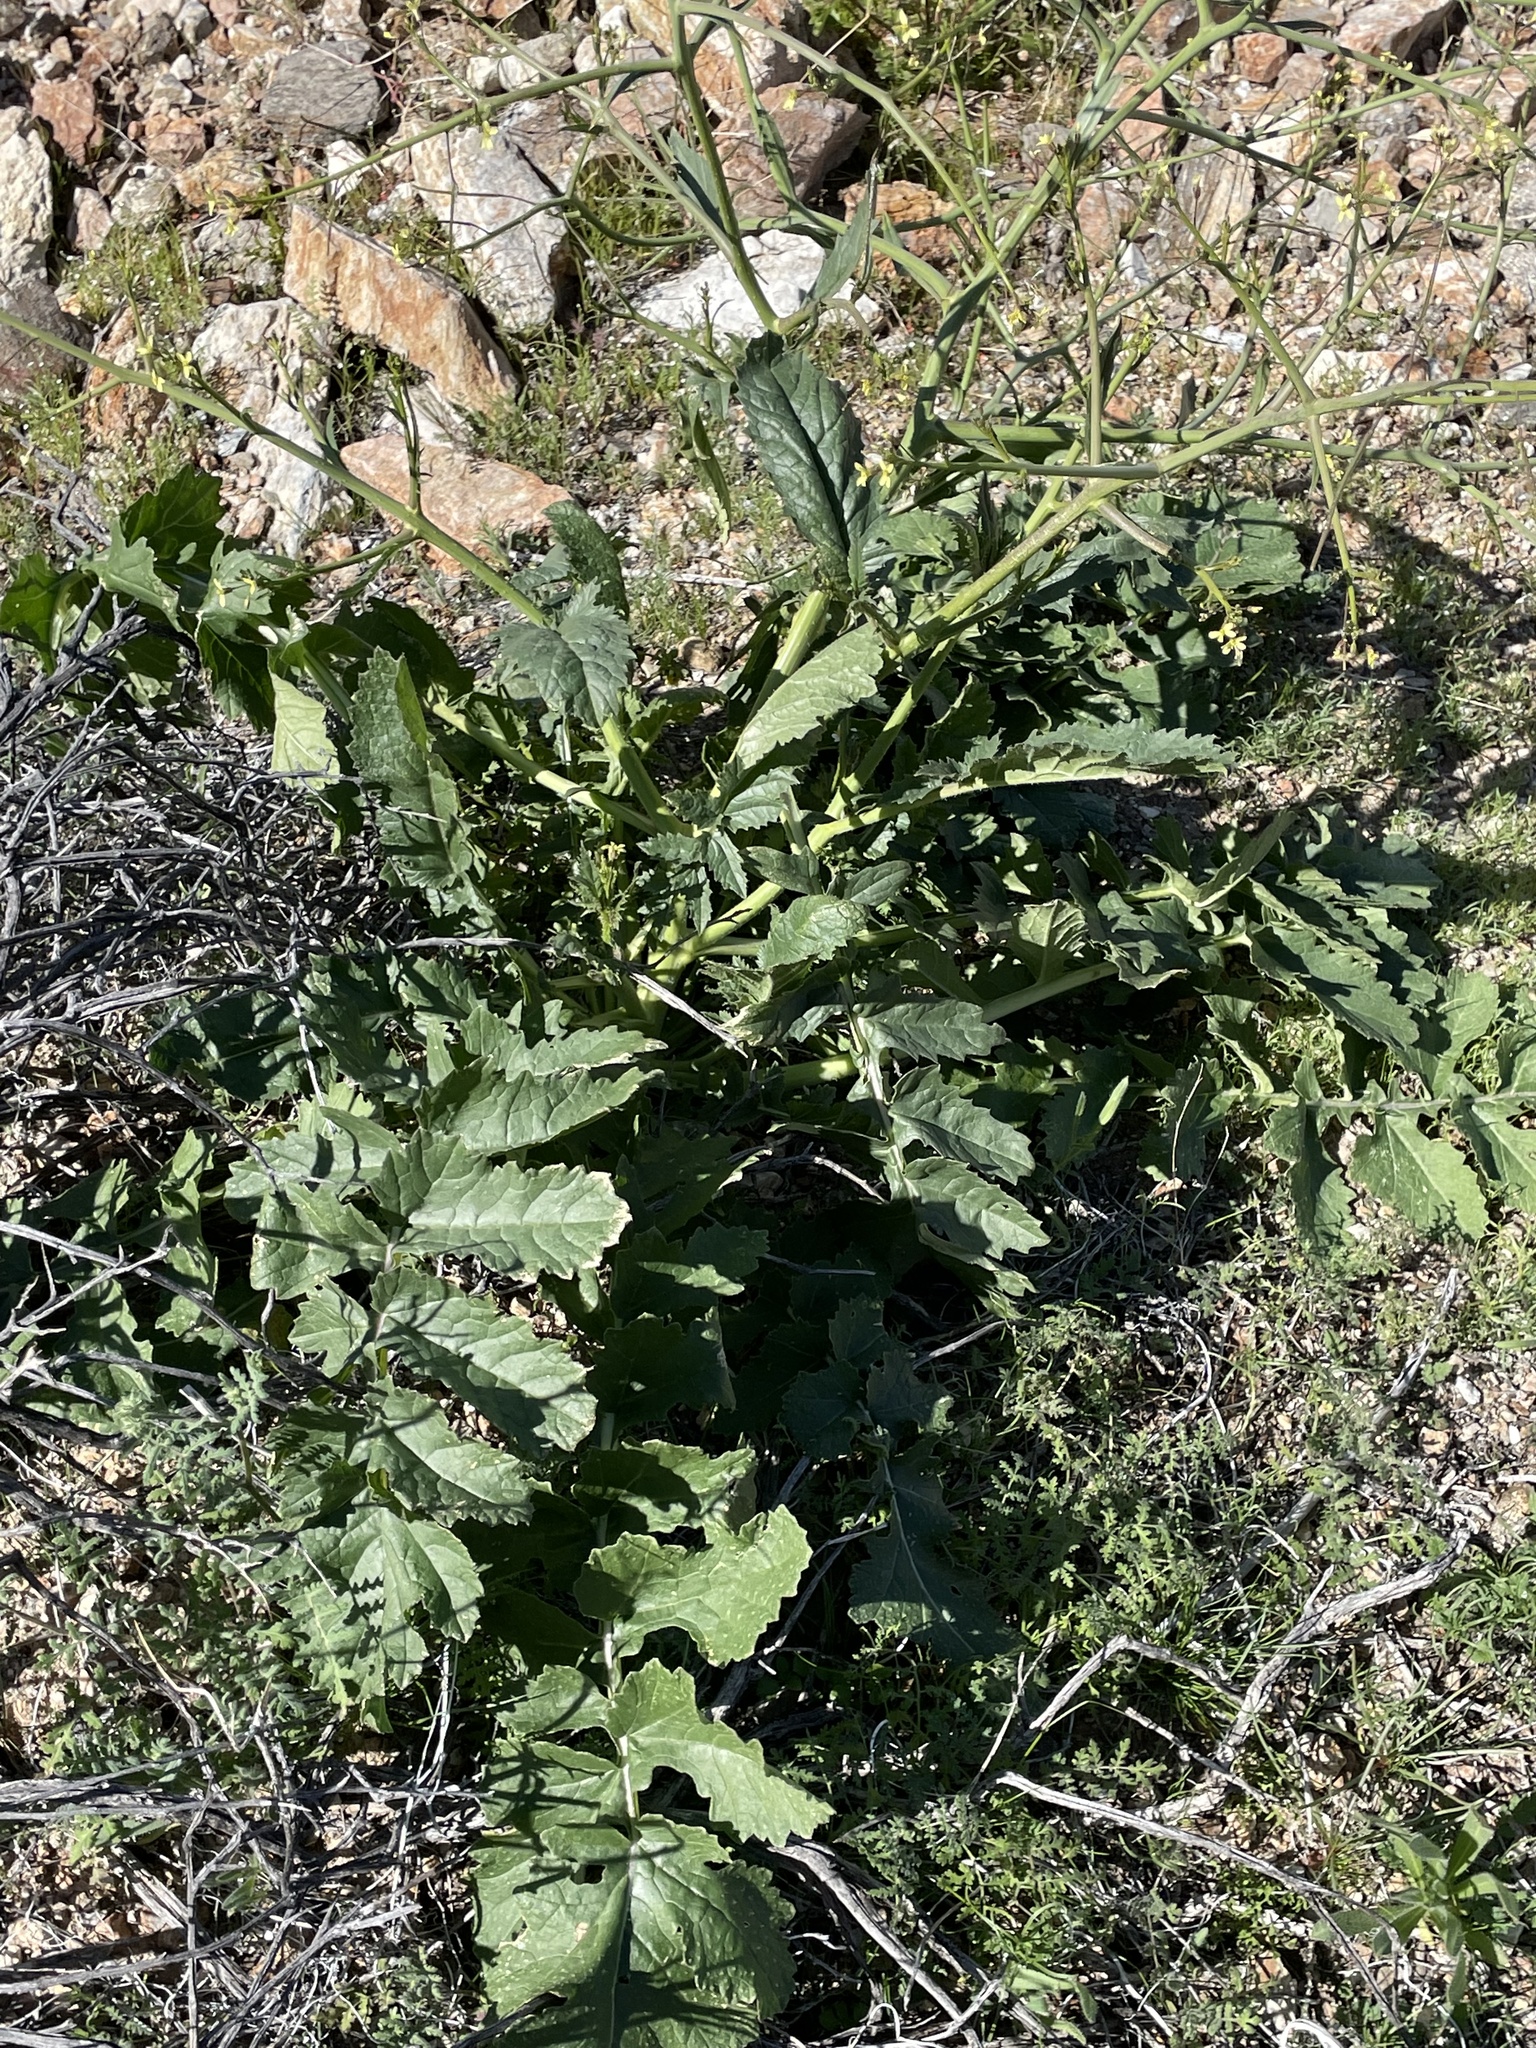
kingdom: Plantae
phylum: Tracheophyta
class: Magnoliopsida
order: Brassicales
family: Brassicaceae
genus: Brassica
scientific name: Brassica tournefortii
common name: Pale cabbage
